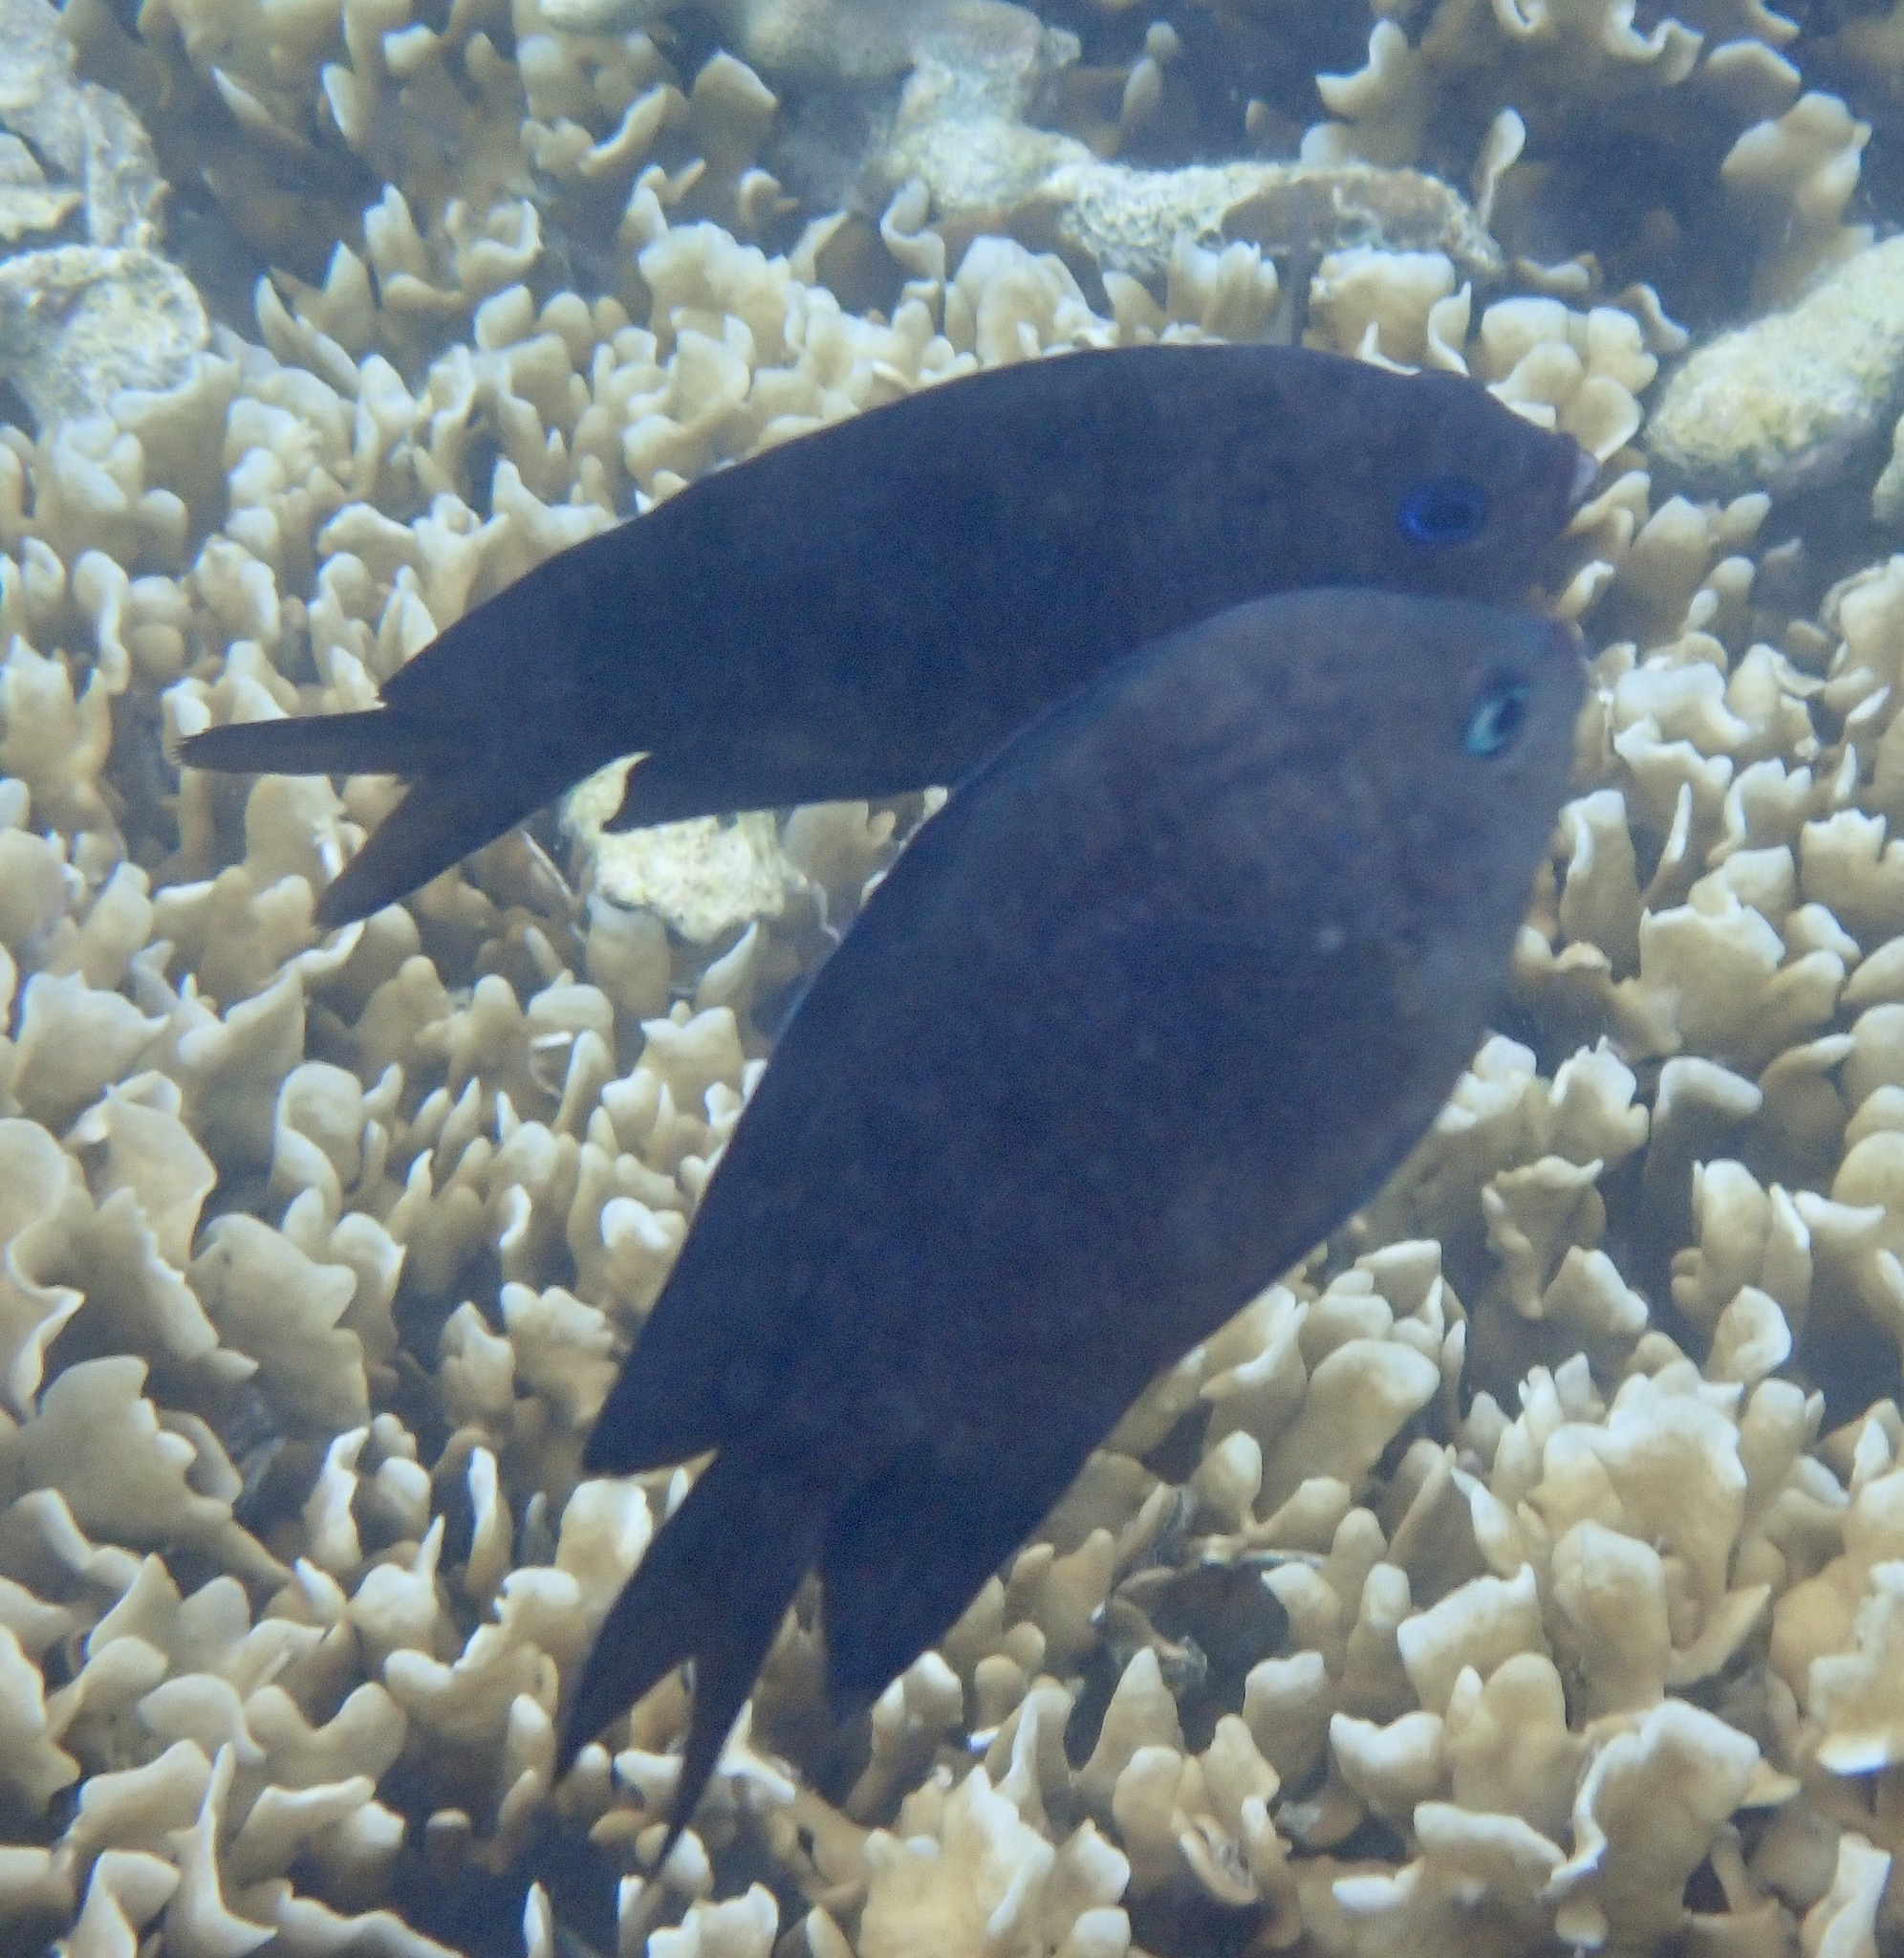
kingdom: Animalia
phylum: Chordata
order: Perciformes
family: Pomacentridae
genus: Acanthochromis
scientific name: Acanthochromis polyacanthus
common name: Spiny chromis
